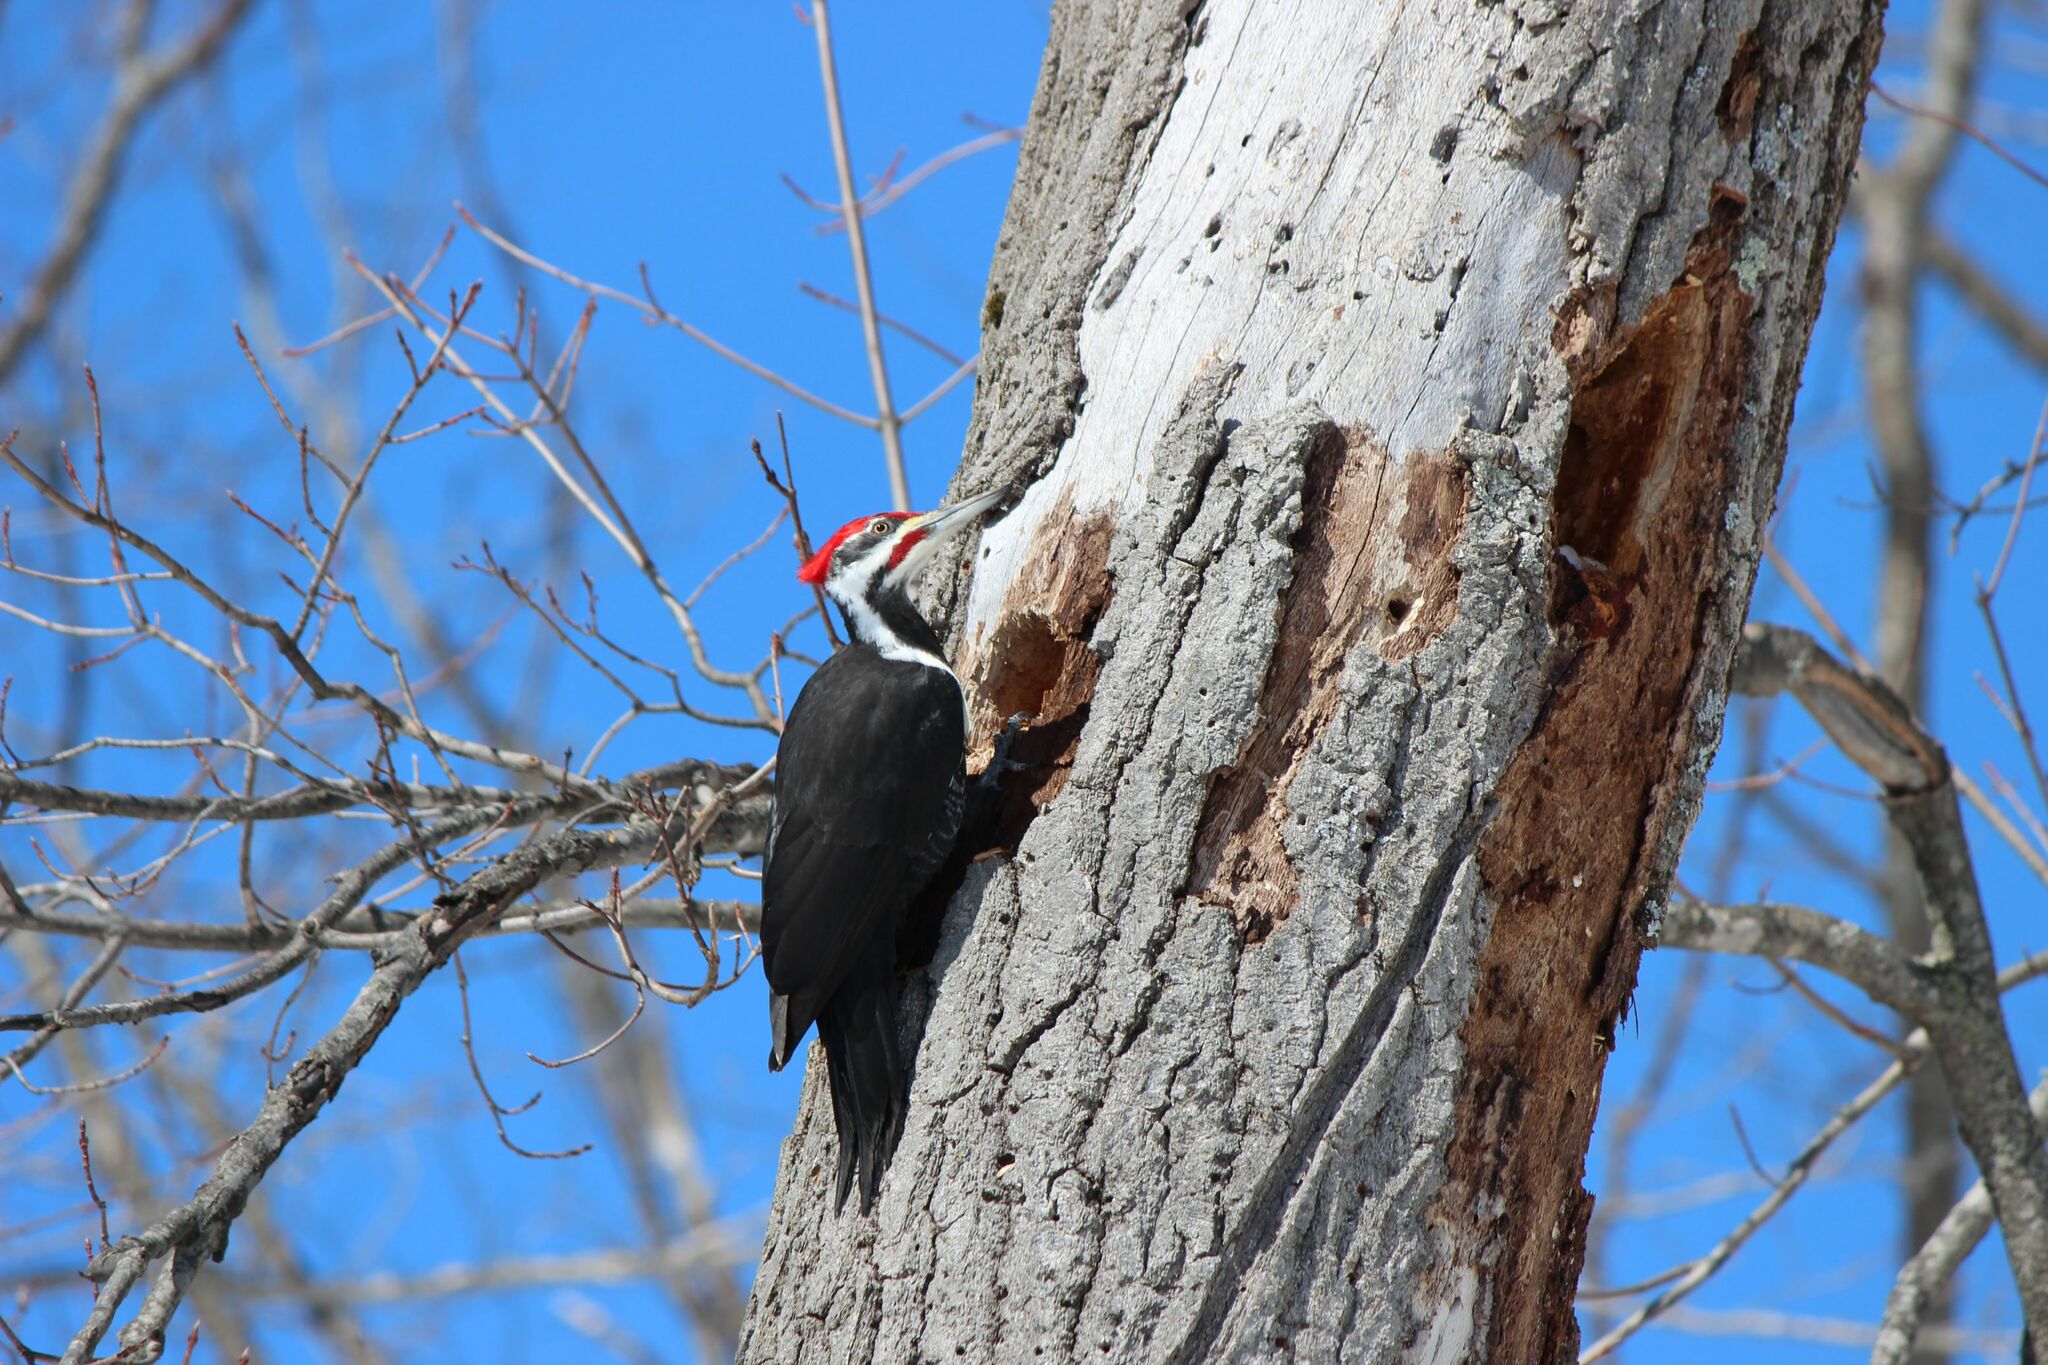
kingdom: Animalia
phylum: Chordata
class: Aves
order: Piciformes
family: Picidae
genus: Dryocopus
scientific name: Dryocopus pileatus
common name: Pileated woodpecker
